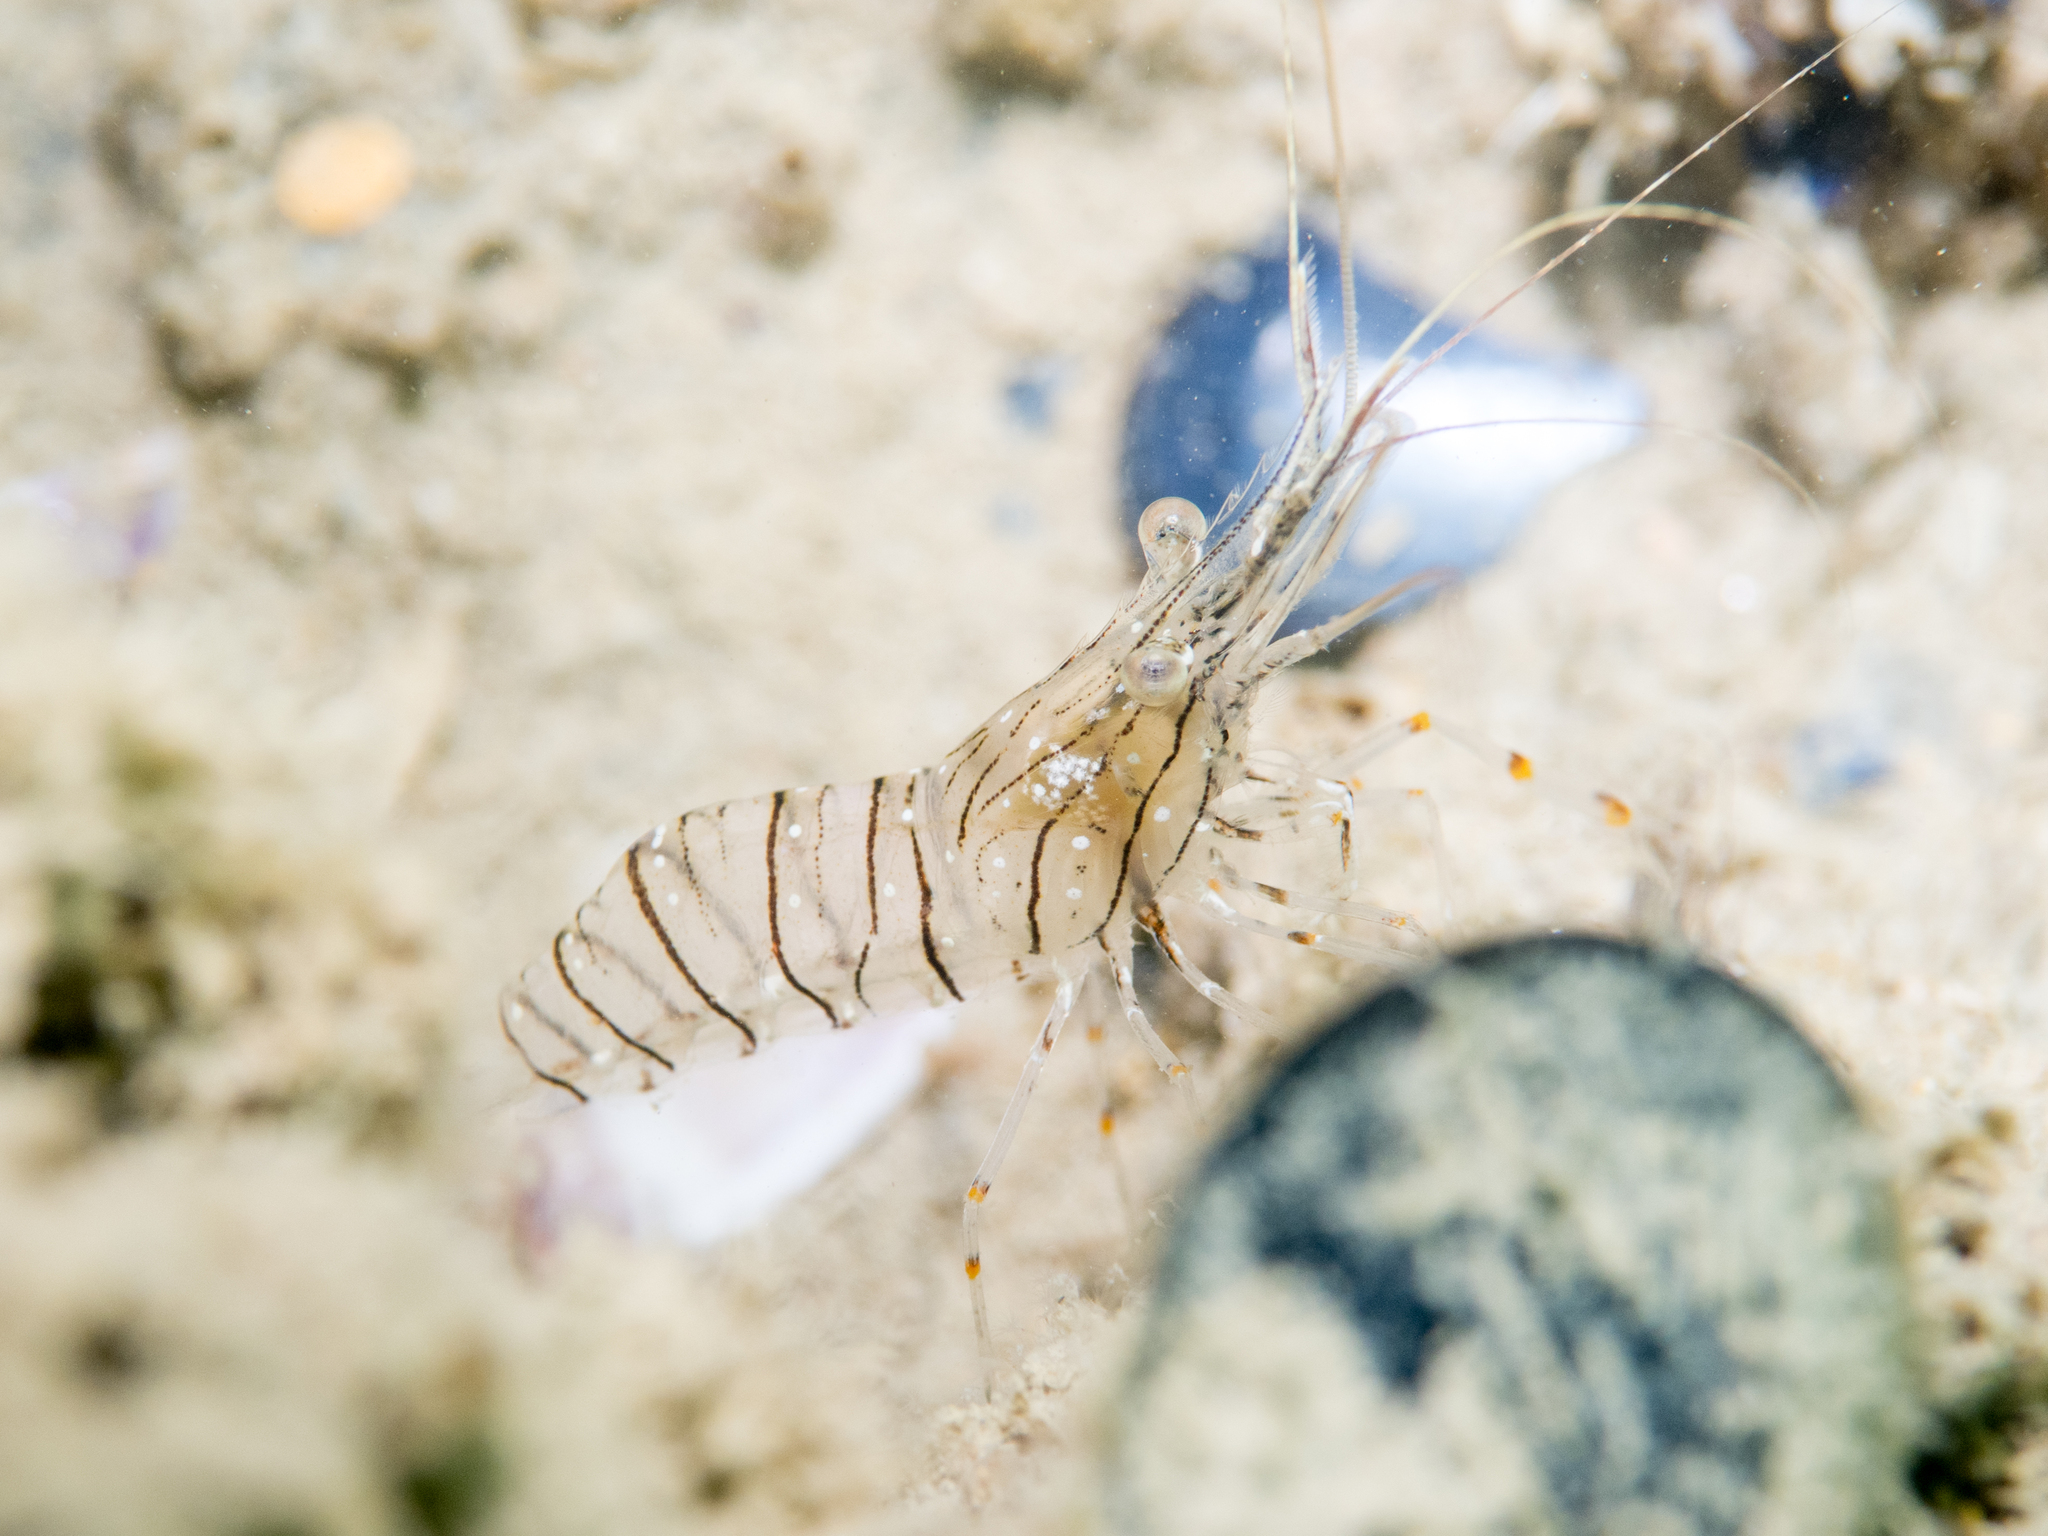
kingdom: Animalia
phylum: Arthropoda
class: Malacostraca
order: Decapoda
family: Palaemonidae
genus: Palaemon
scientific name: Palaemon elegans
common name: Grass prawm
